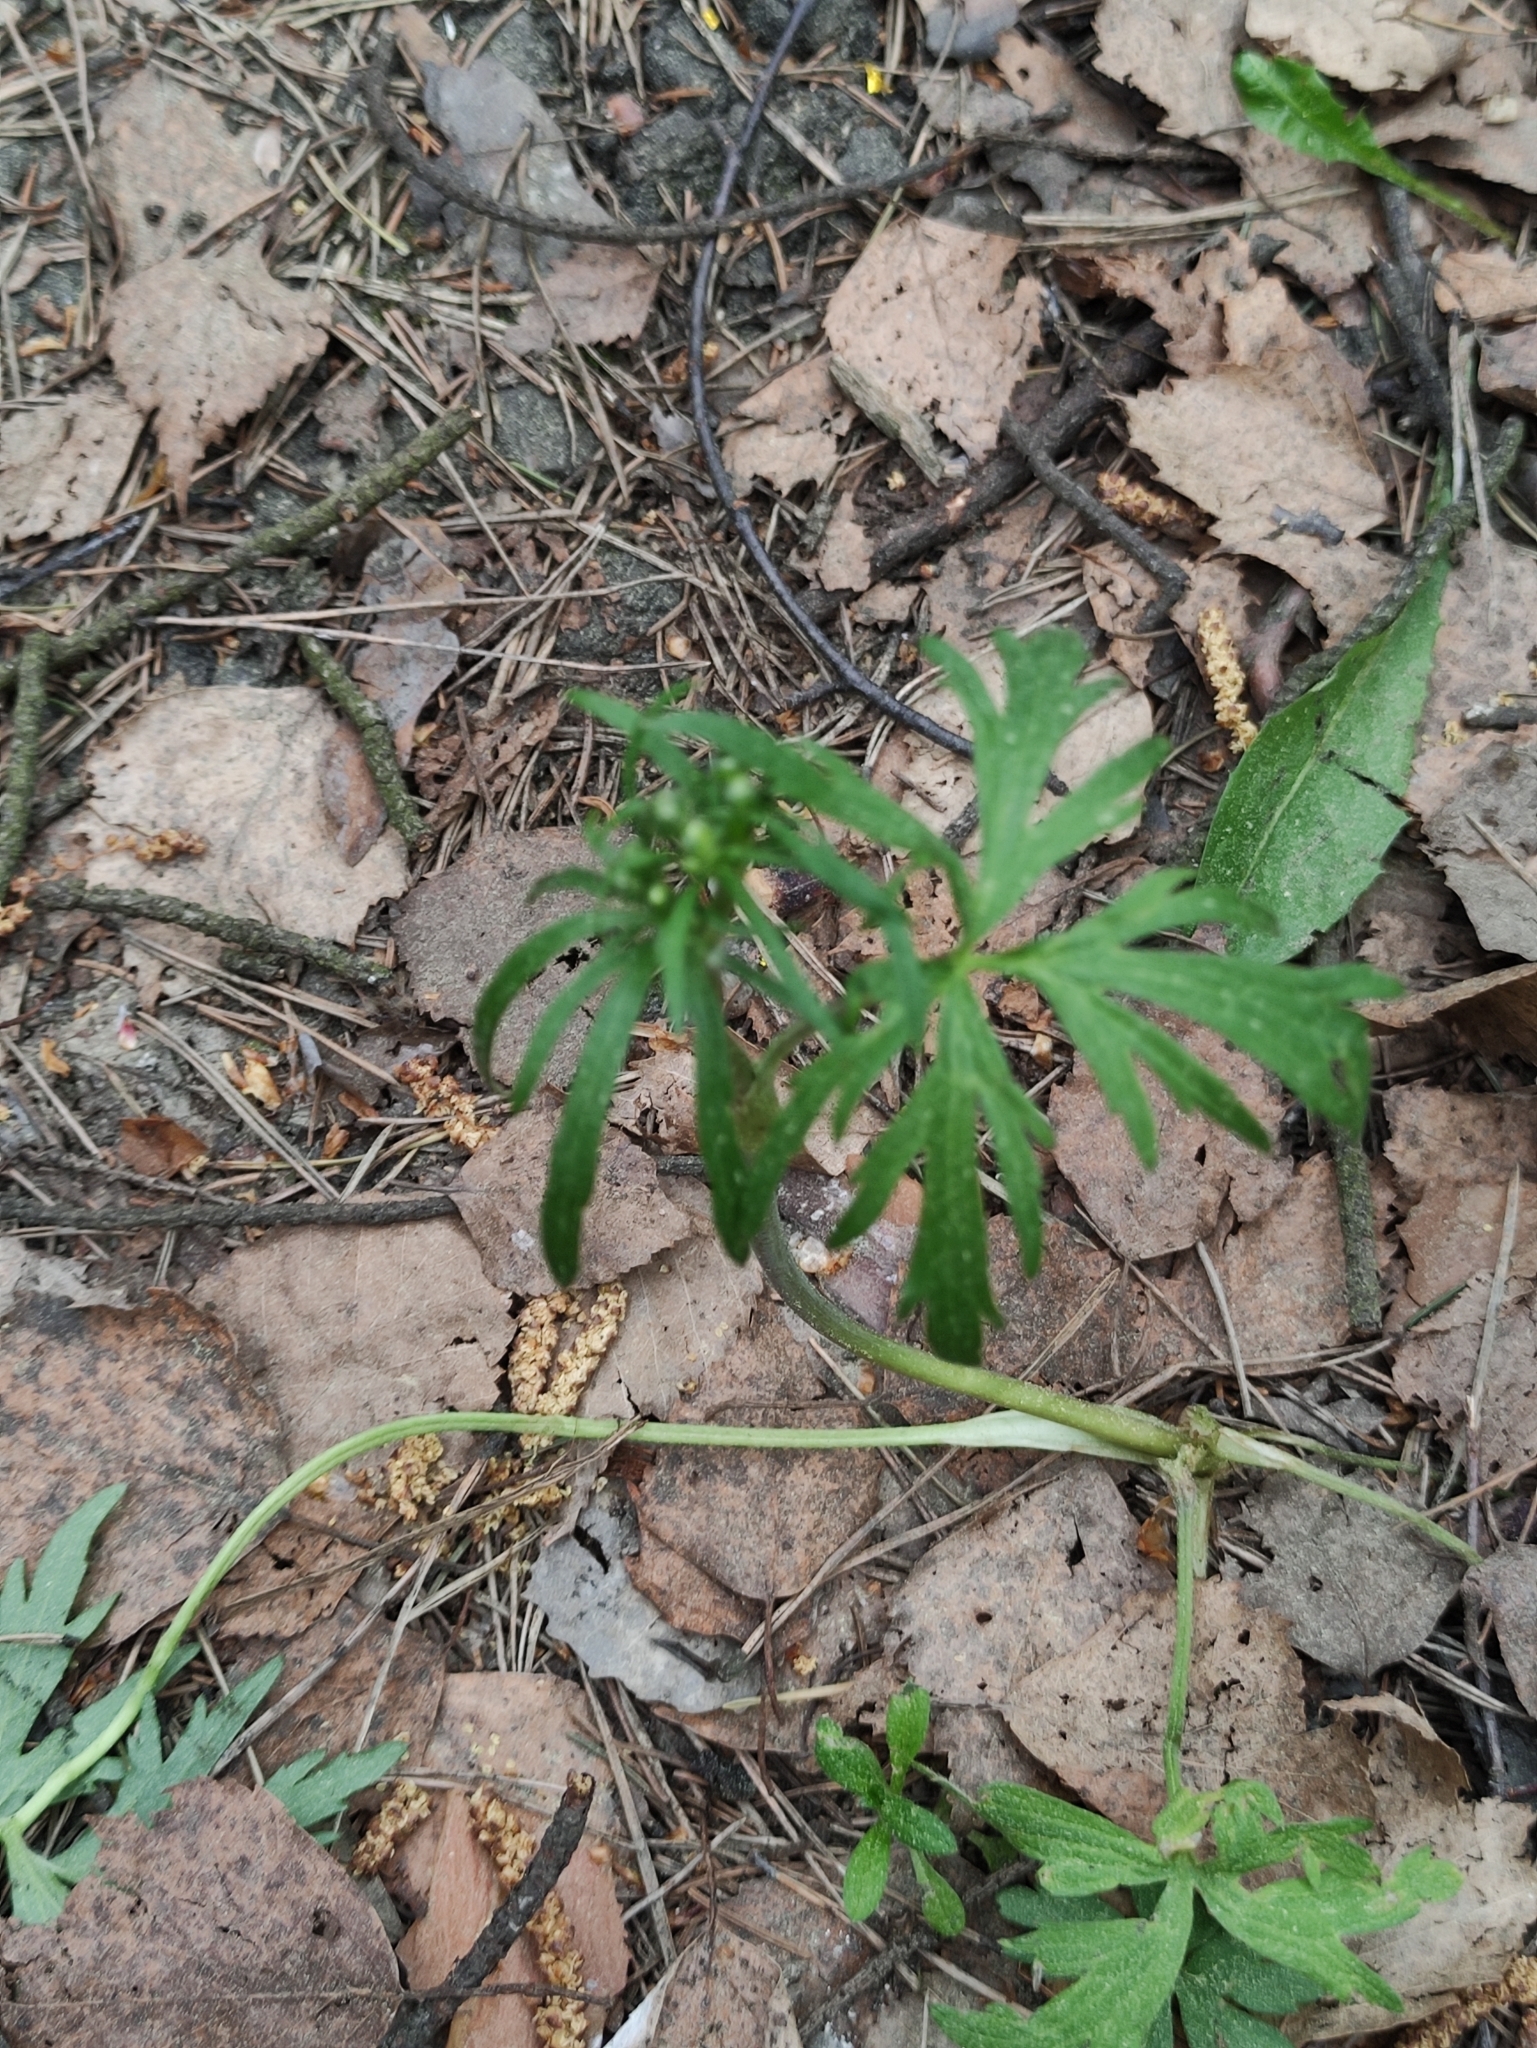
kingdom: Plantae
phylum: Tracheophyta
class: Magnoliopsida
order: Ranunculales
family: Ranunculaceae
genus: Ranunculus
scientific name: Ranunculus acris
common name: Meadow buttercup
